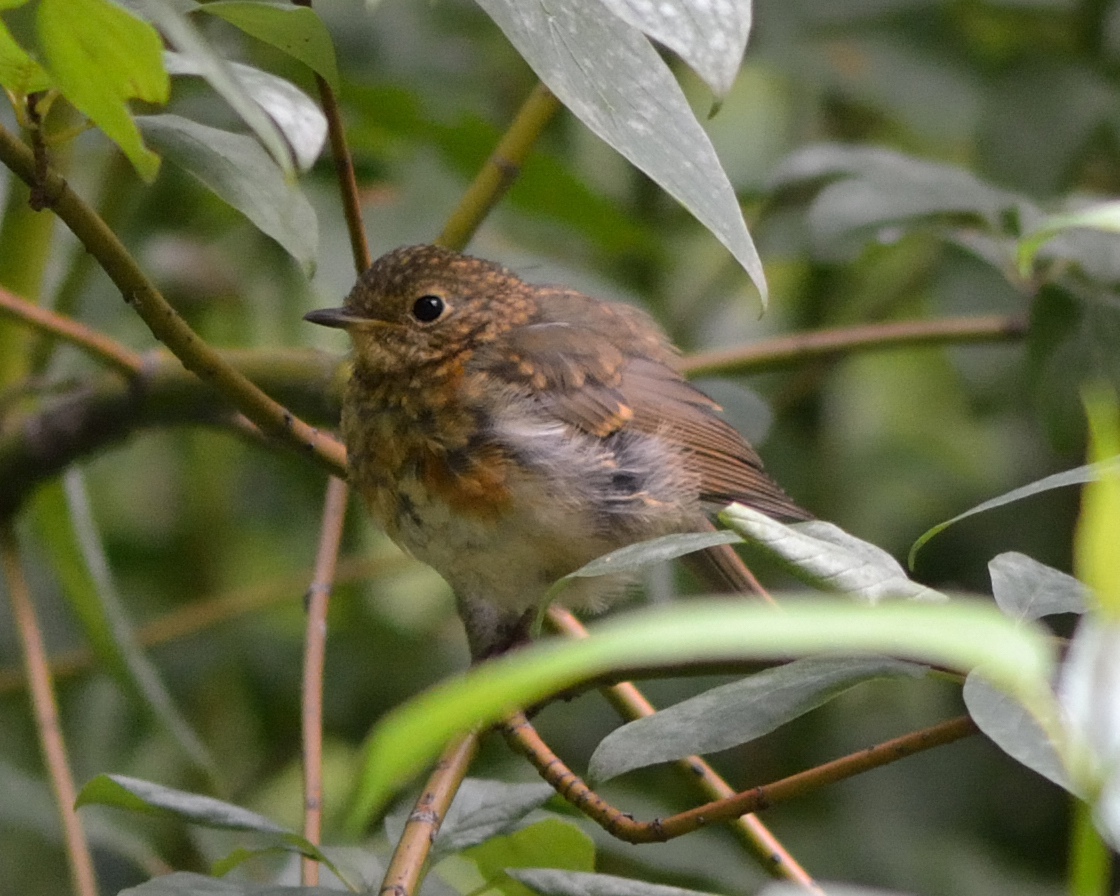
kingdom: Animalia
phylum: Chordata
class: Aves
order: Passeriformes
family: Muscicapidae
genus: Erithacus
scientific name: Erithacus rubecula
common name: European robin
